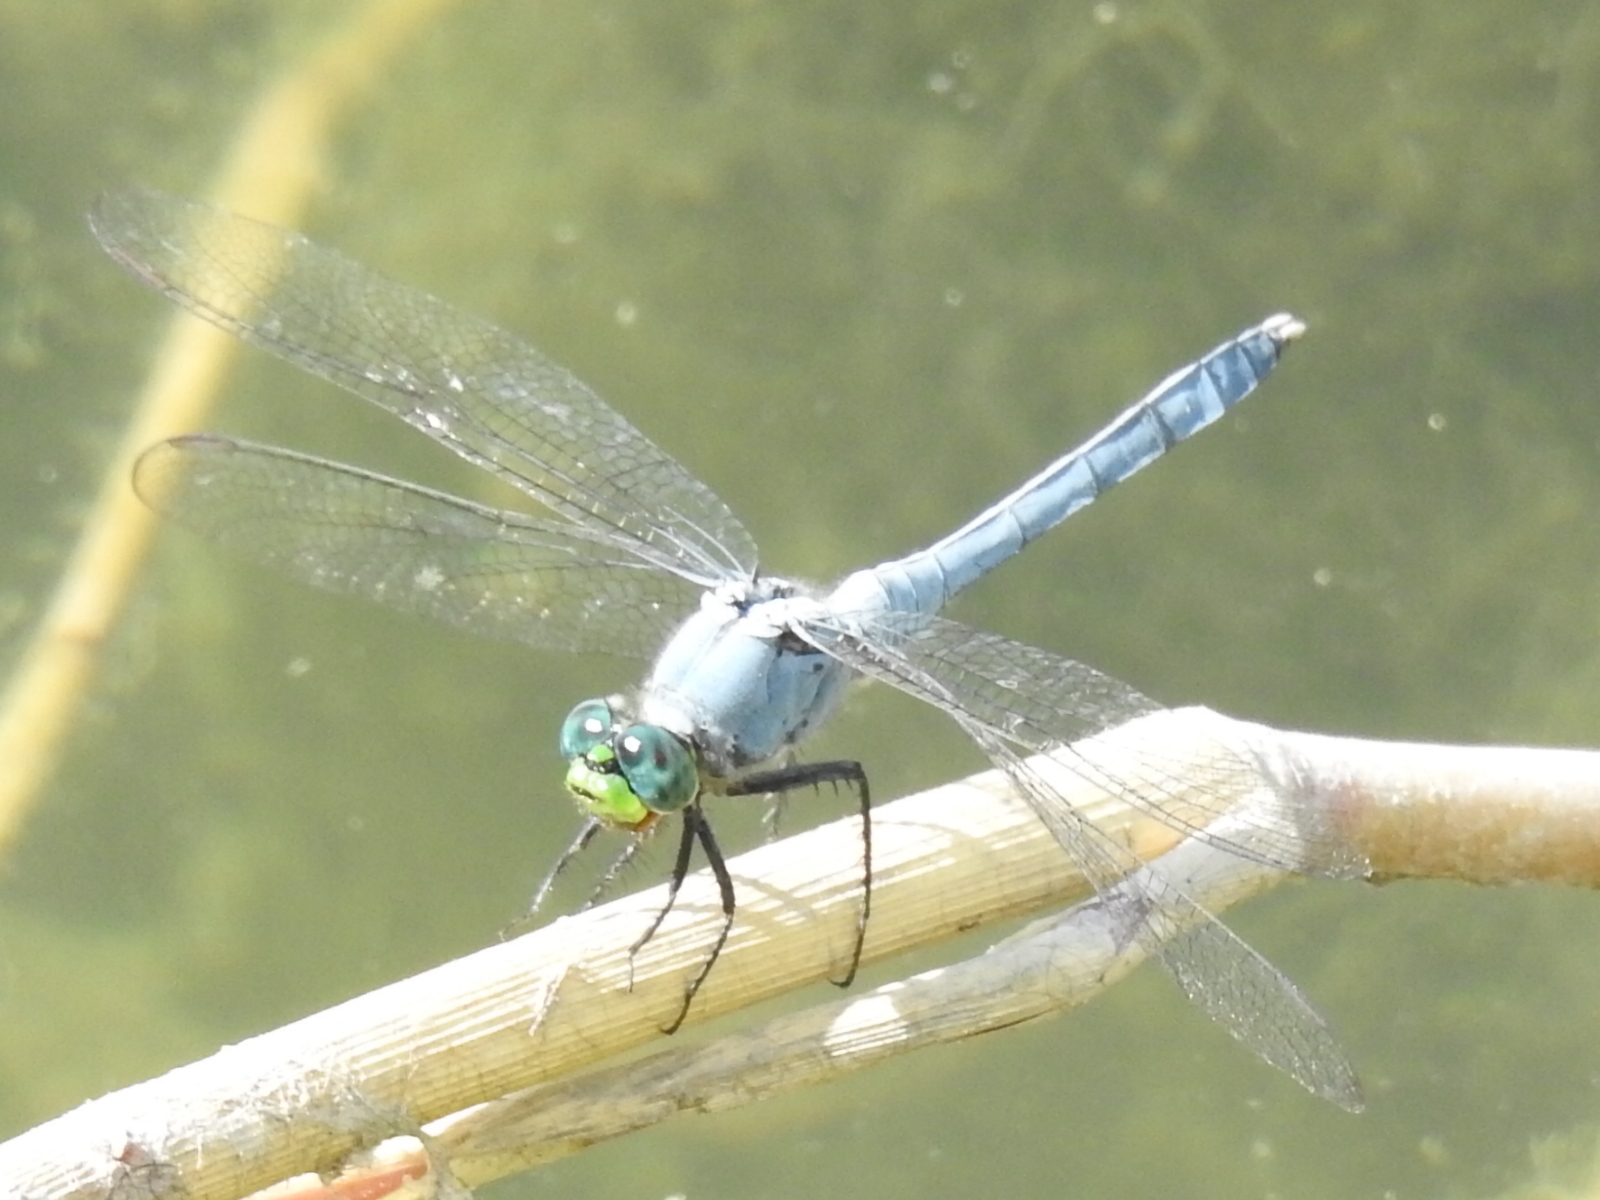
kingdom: Animalia
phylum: Arthropoda
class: Insecta
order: Odonata
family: Libellulidae
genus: Erythemis
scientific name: Erythemis simplicicollis
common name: Eastern pondhawk
